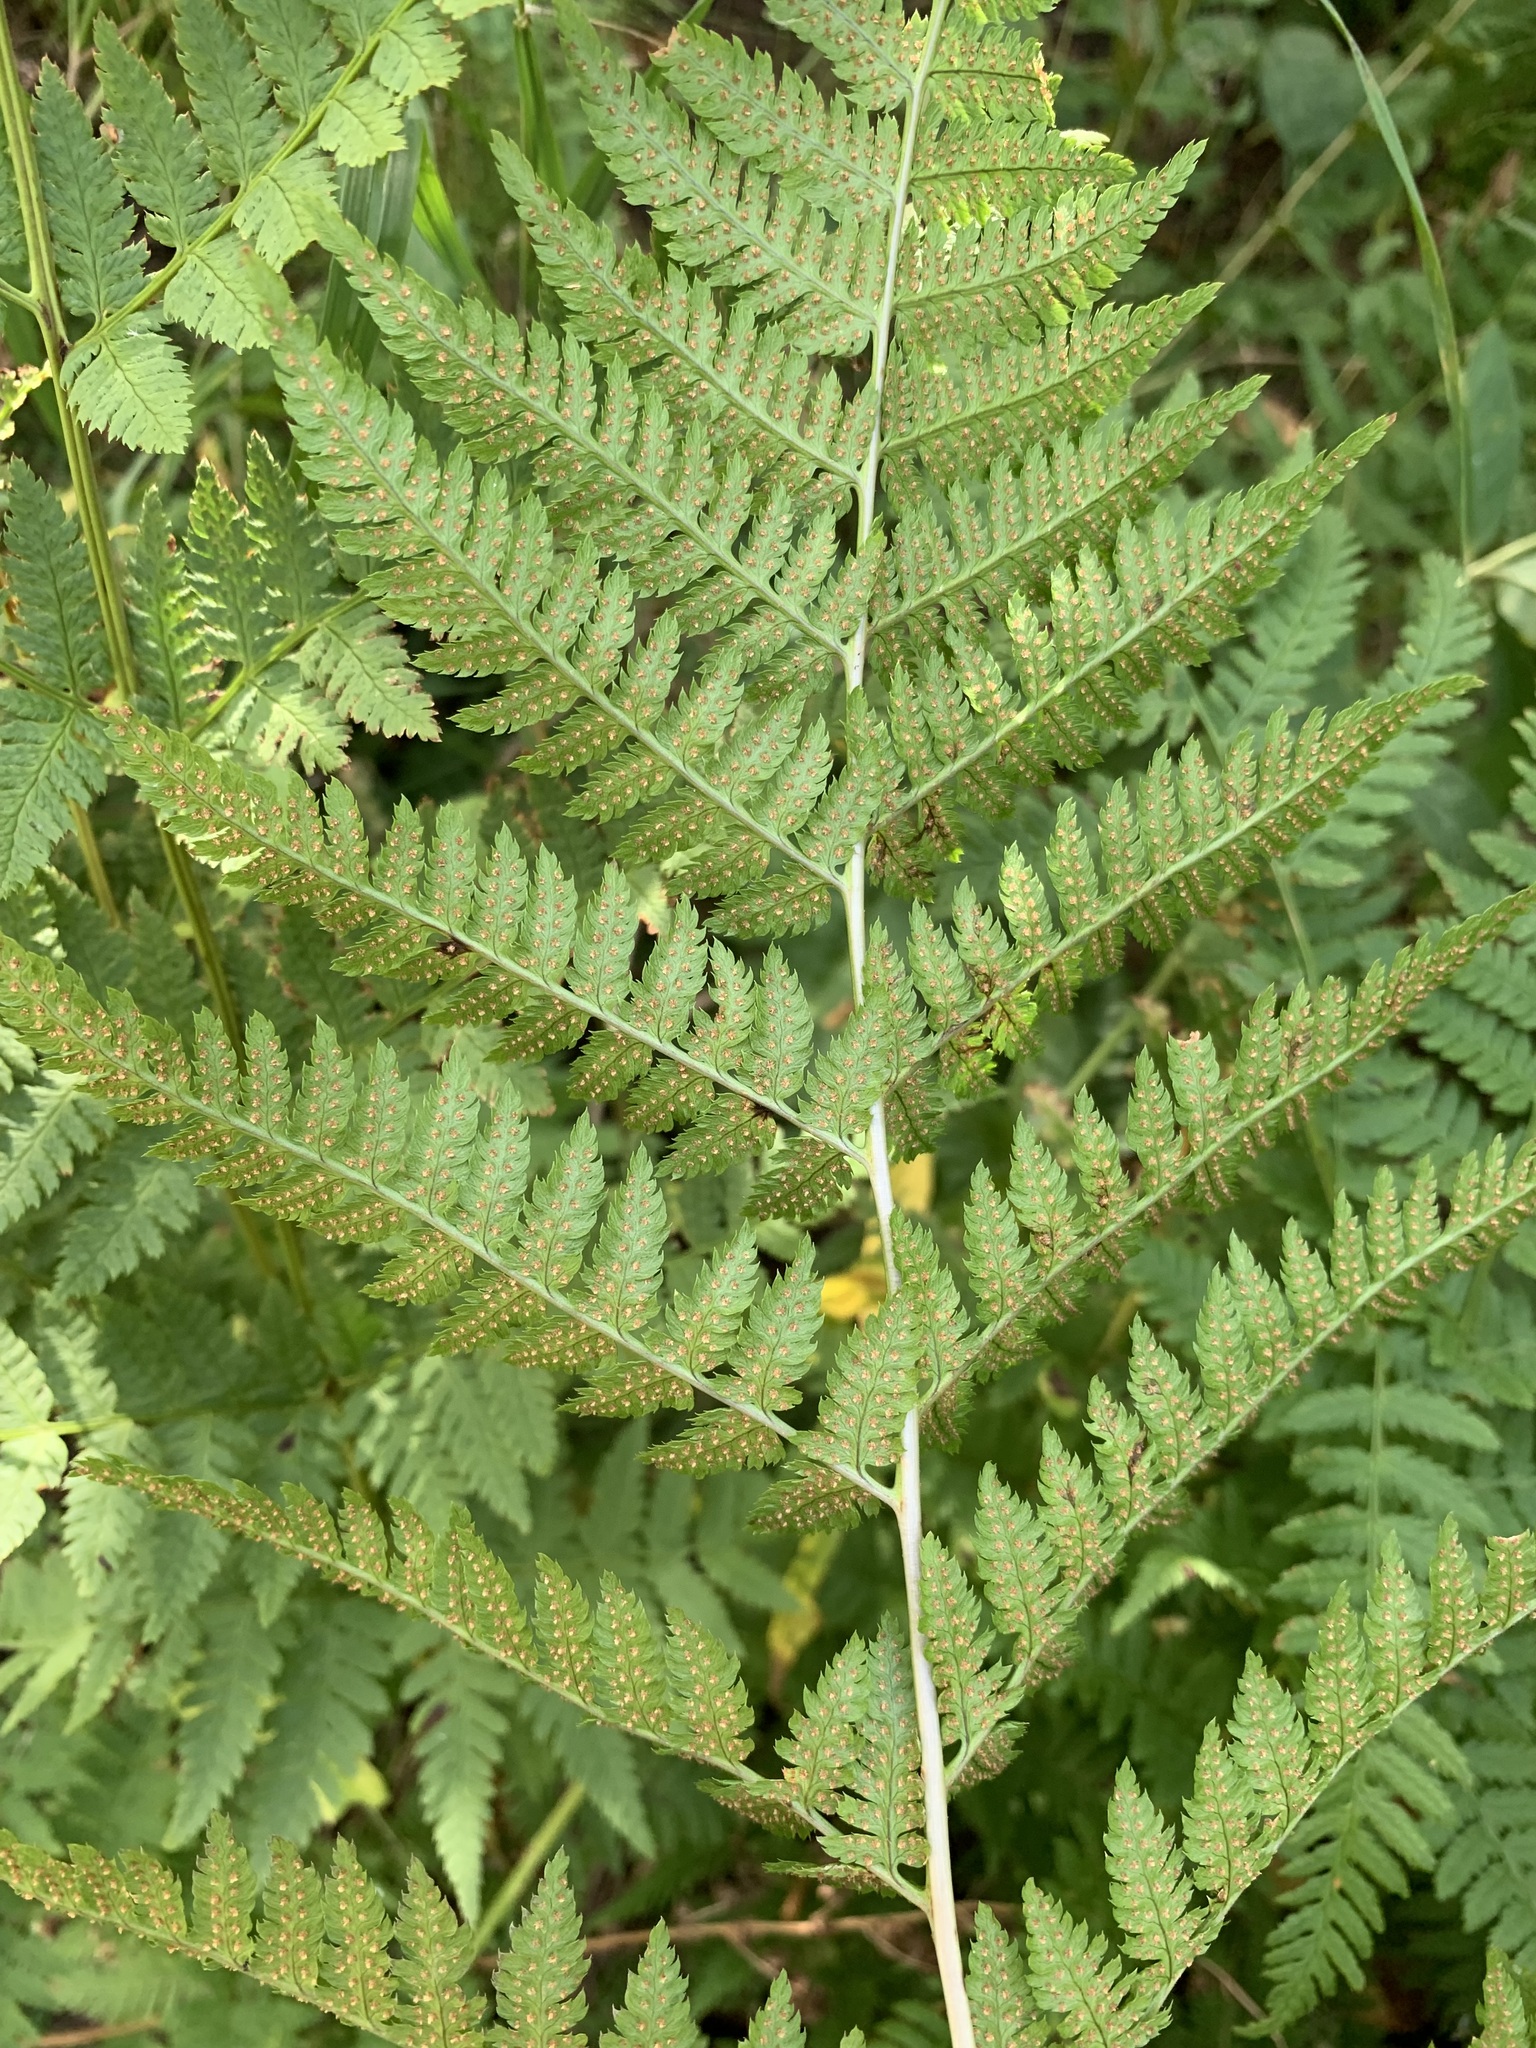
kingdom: Plantae
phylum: Tracheophyta
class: Polypodiopsida
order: Polypodiales
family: Dryopteridaceae
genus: Dryopteris
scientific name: Dryopteris carthusiana
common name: Narrow buckler-fern
